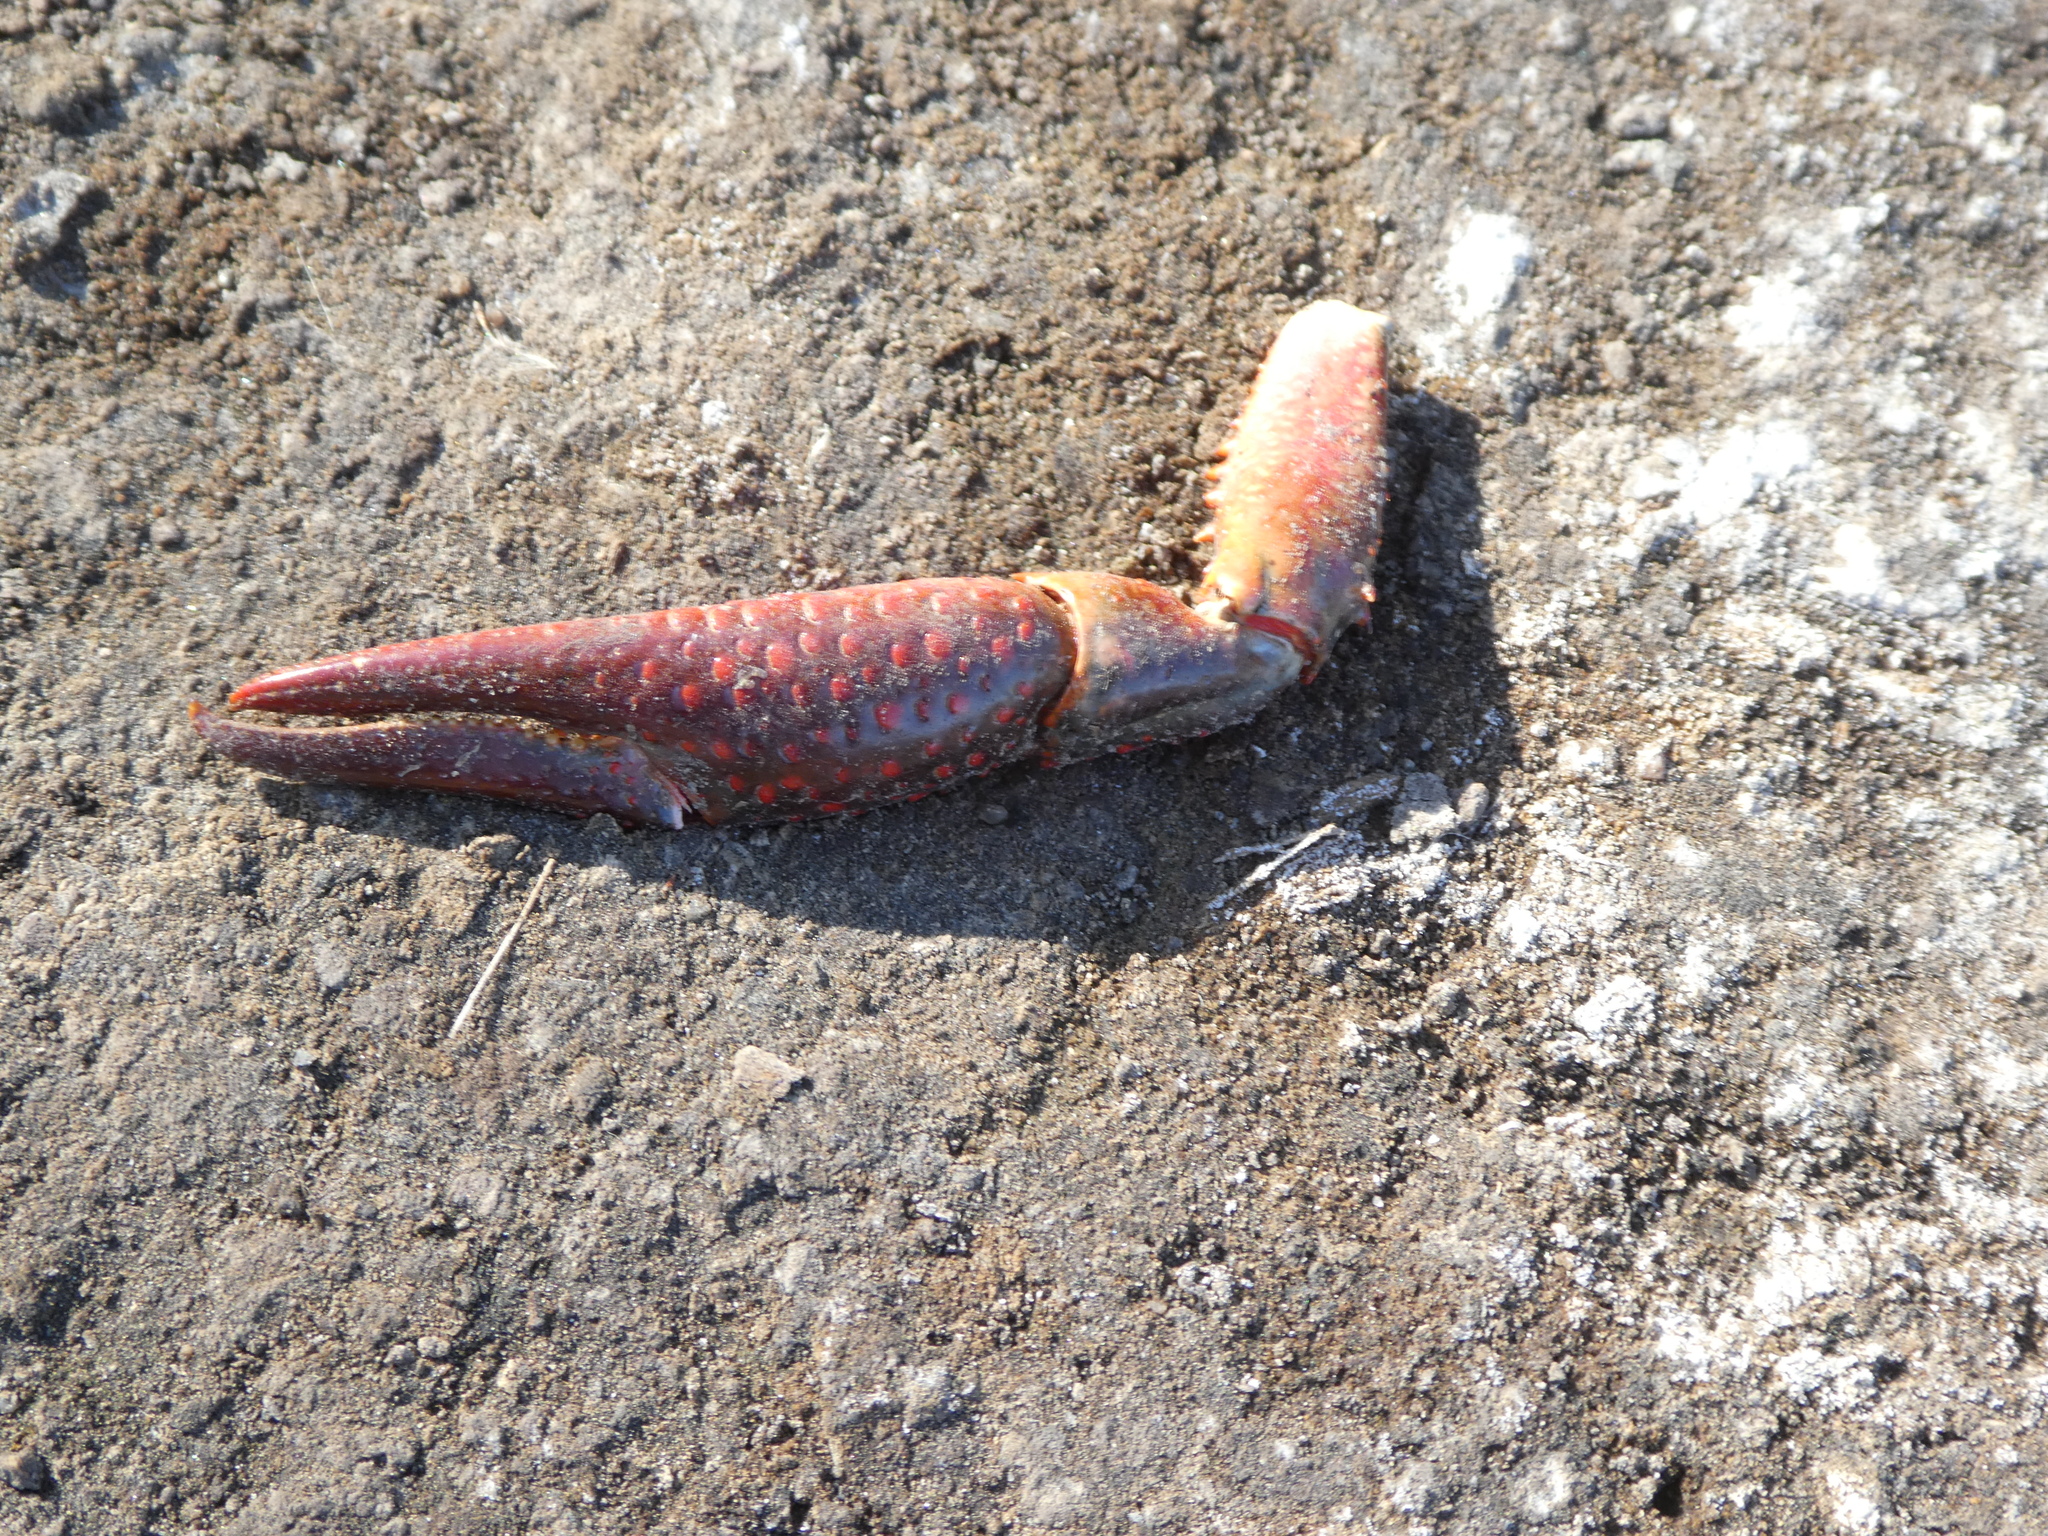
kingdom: Animalia
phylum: Arthropoda
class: Malacostraca
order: Decapoda
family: Cambaridae
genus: Procambarus
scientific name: Procambarus clarkii
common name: Red swamp crayfish
